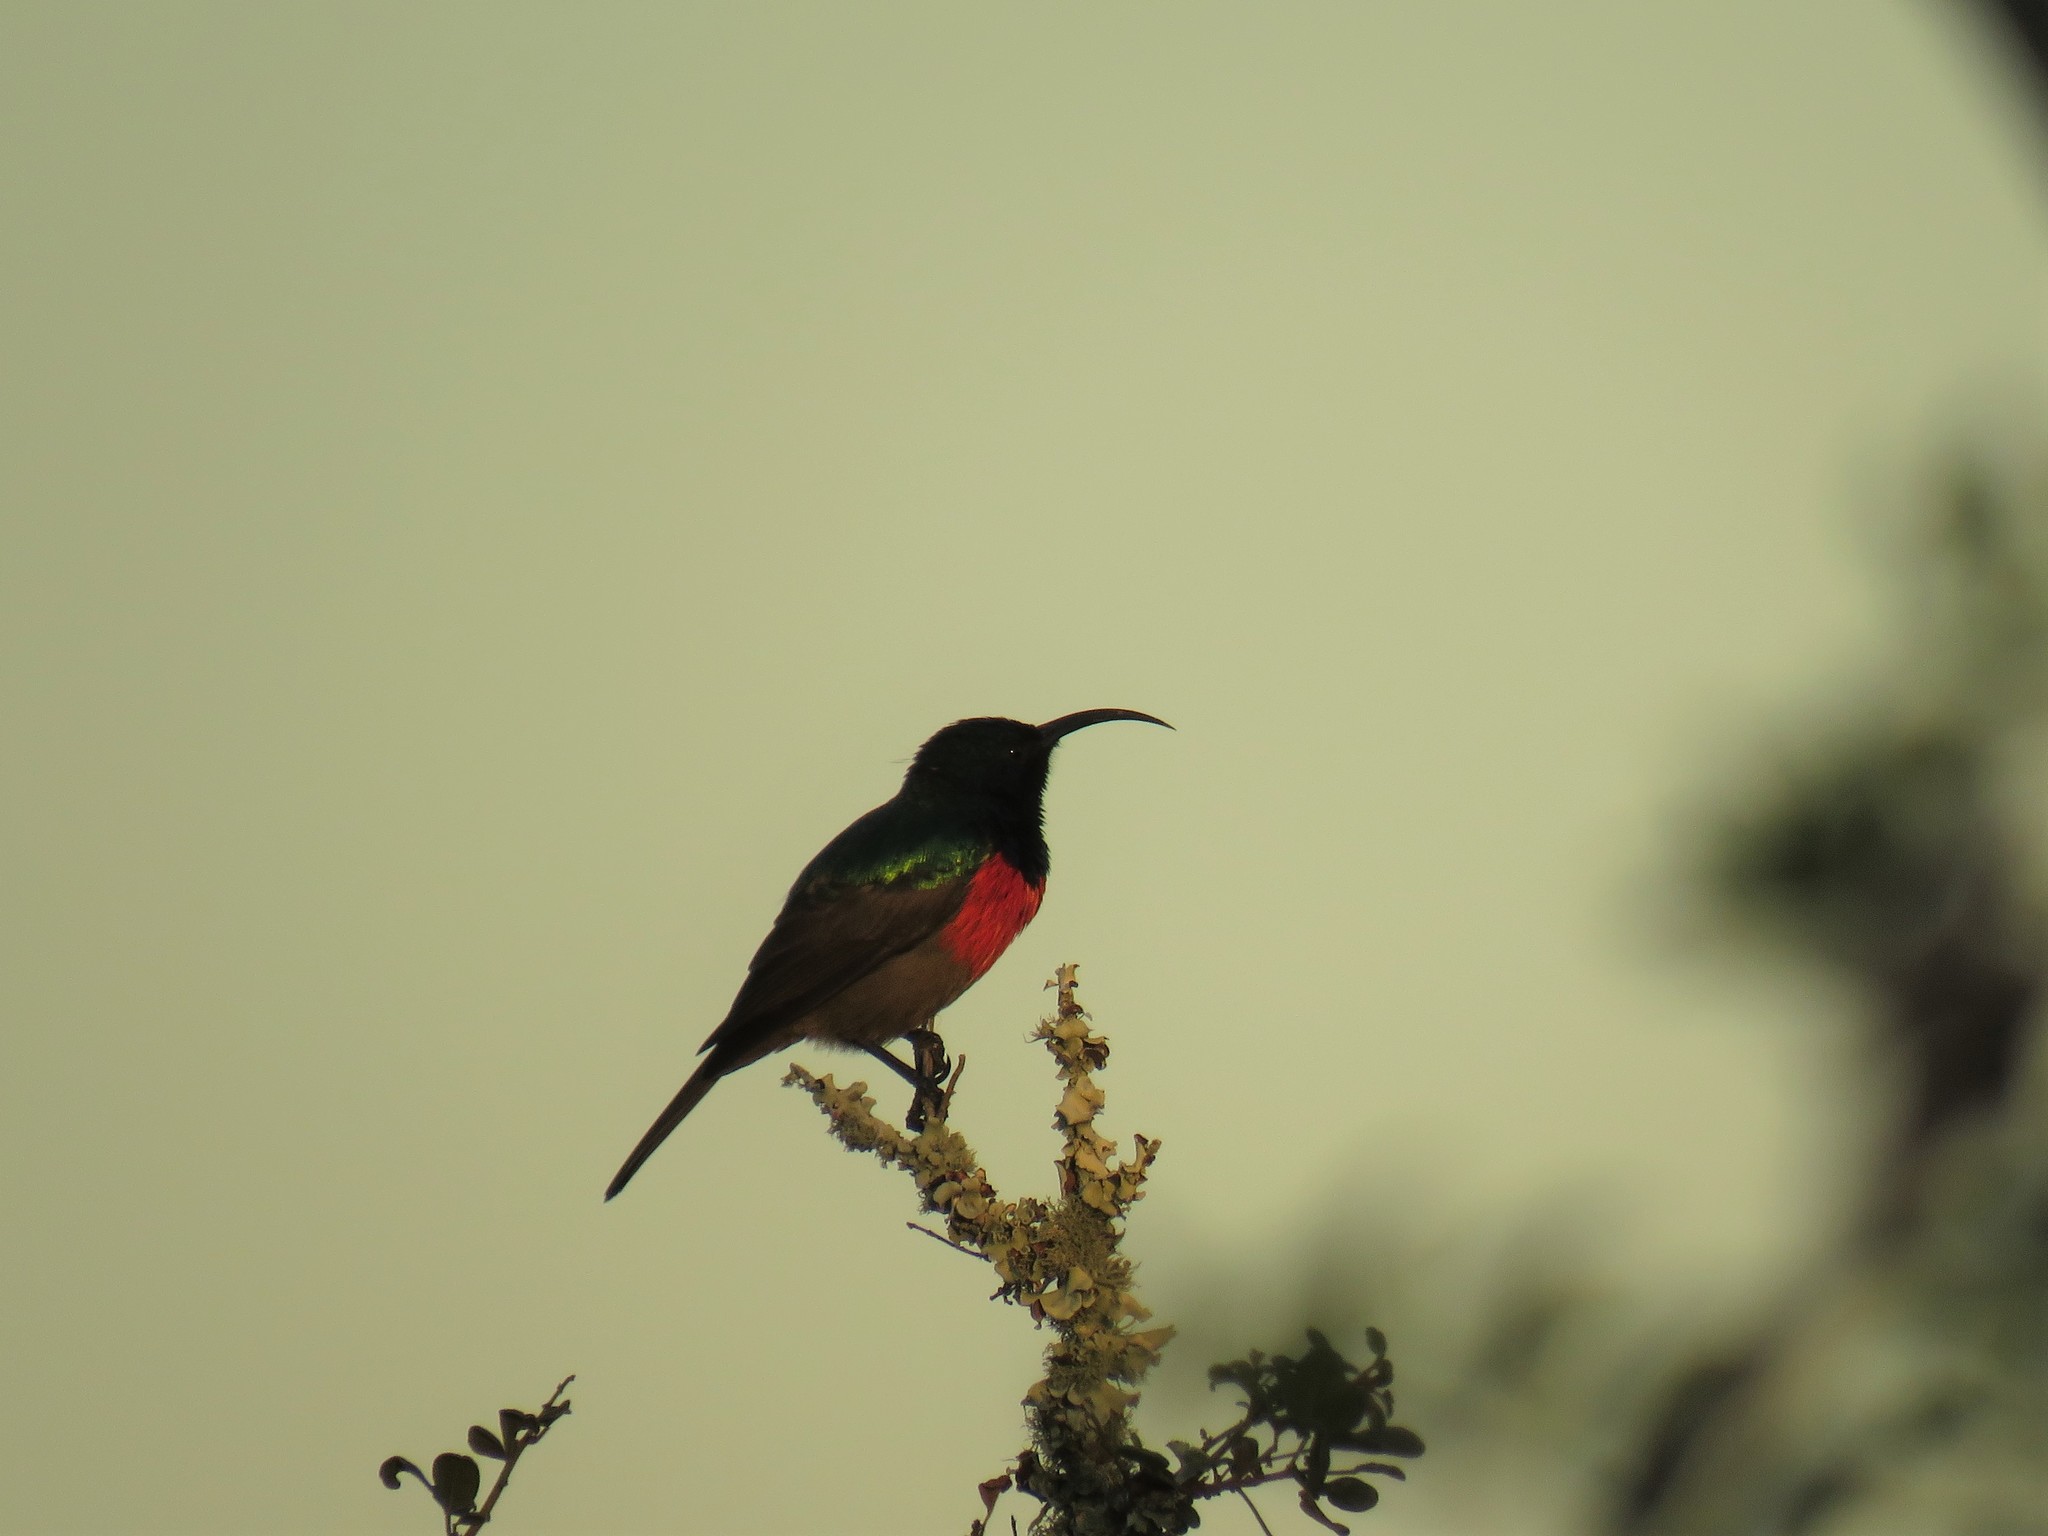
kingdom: Animalia
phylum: Chordata
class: Aves
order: Passeriformes
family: Nectariniidae
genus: Cinnyris
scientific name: Cinnyris afer
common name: Greater double-collared sunbird
